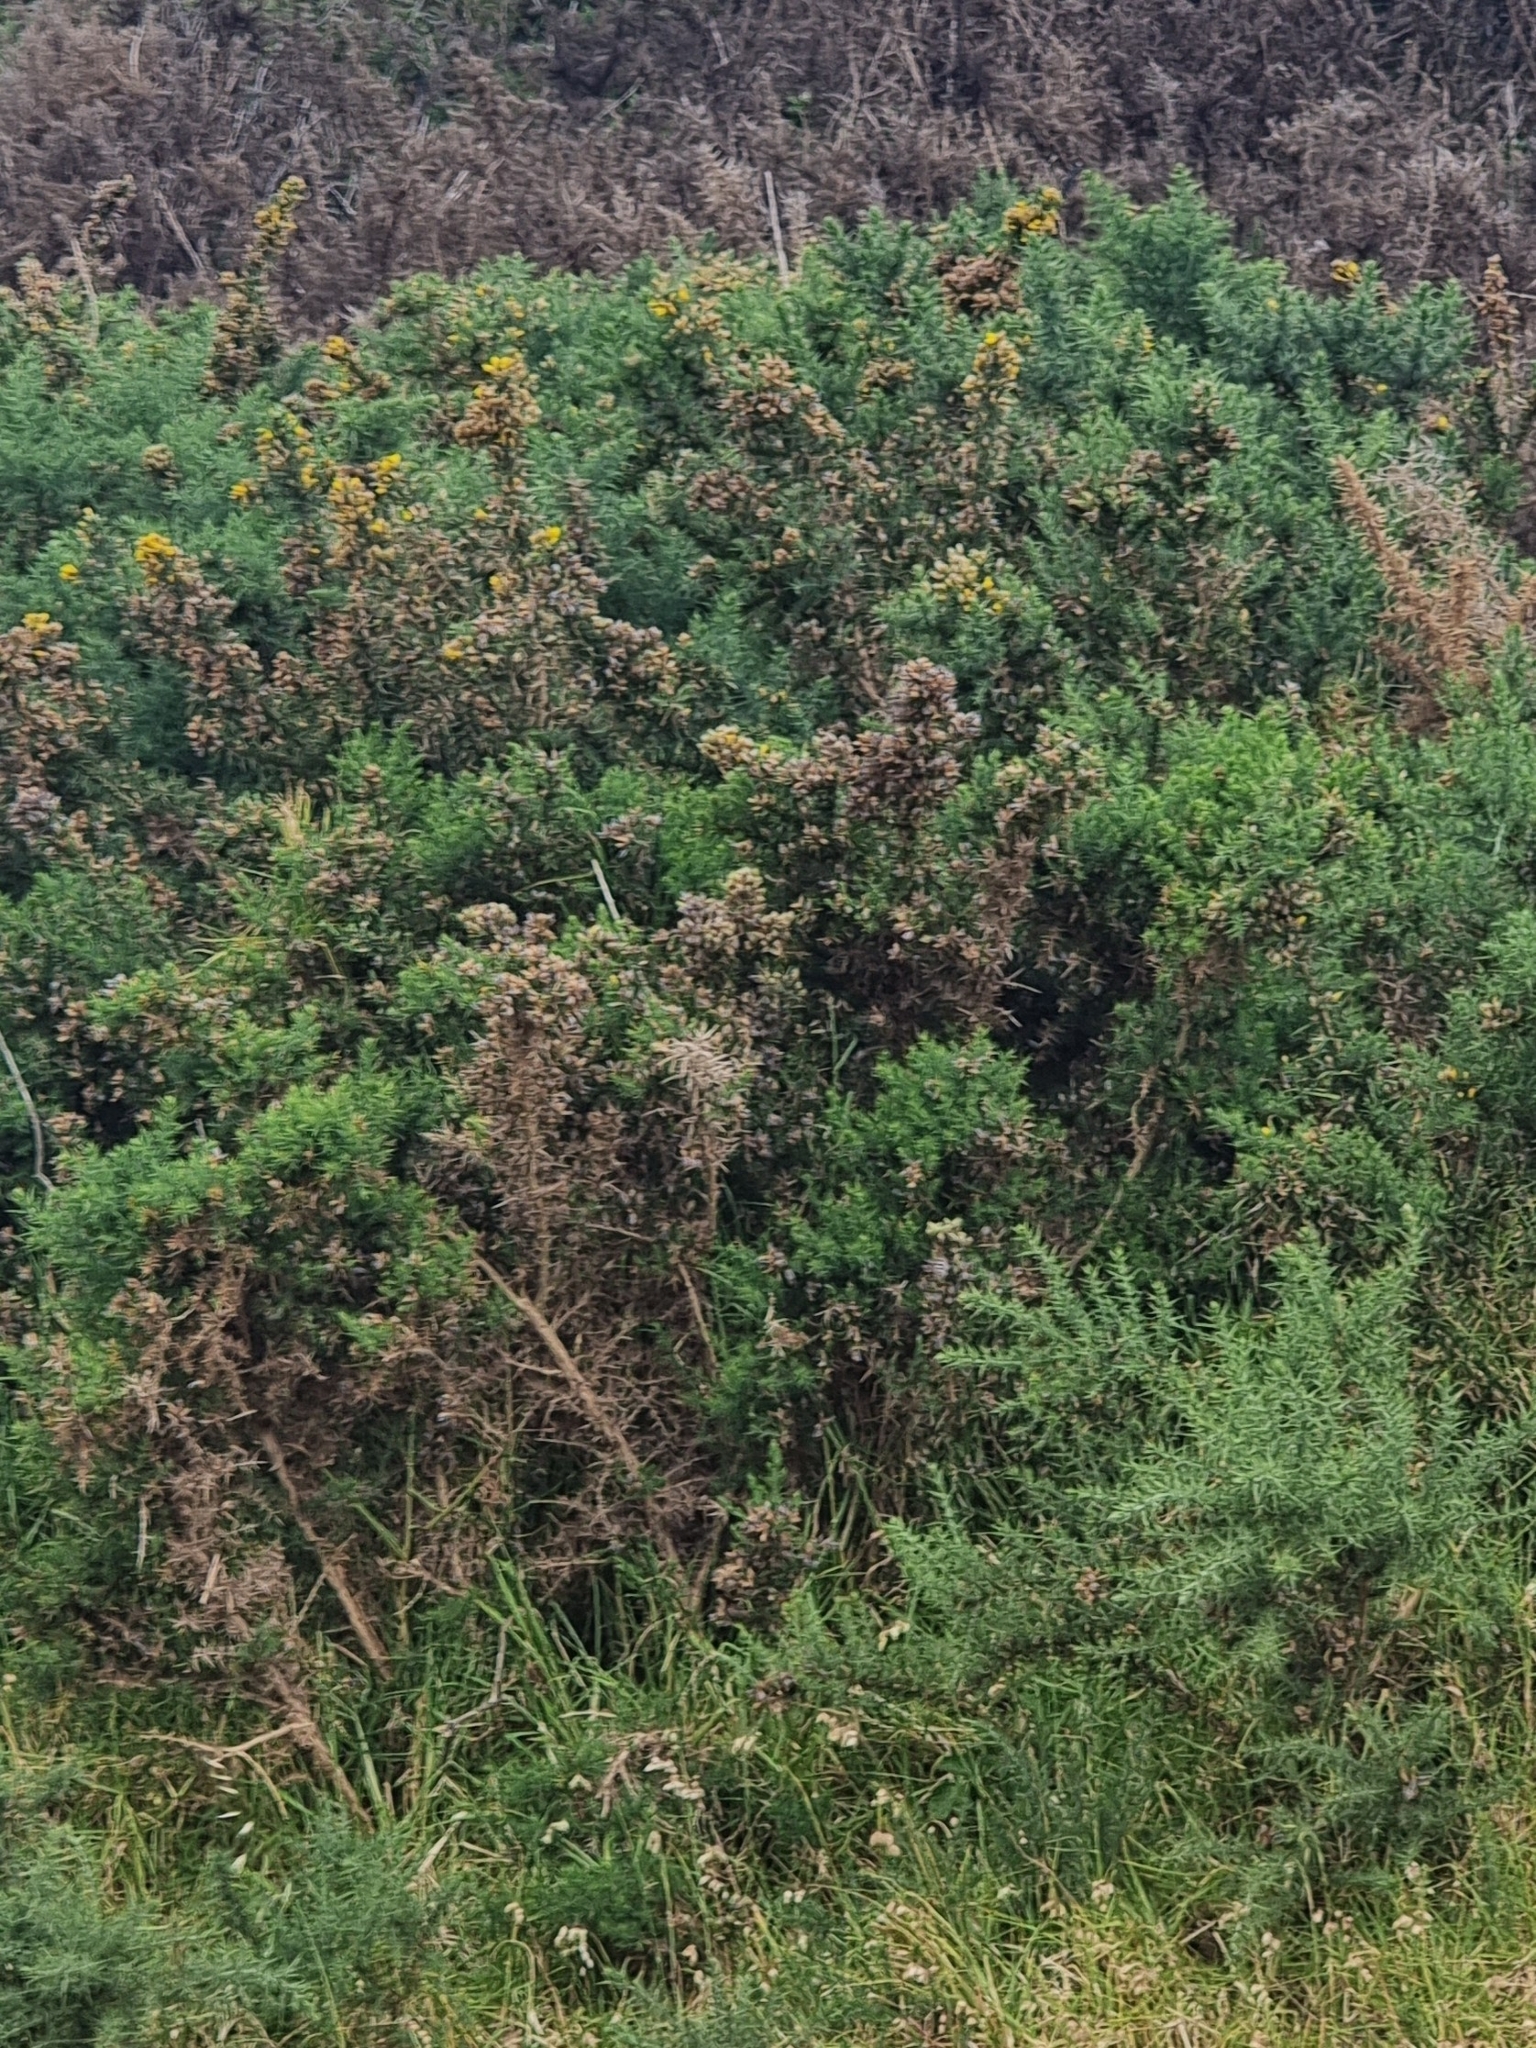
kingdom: Plantae
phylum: Tracheophyta
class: Magnoliopsida
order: Fabales
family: Fabaceae
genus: Ulex
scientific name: Ulex europaeus
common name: Common gorse
